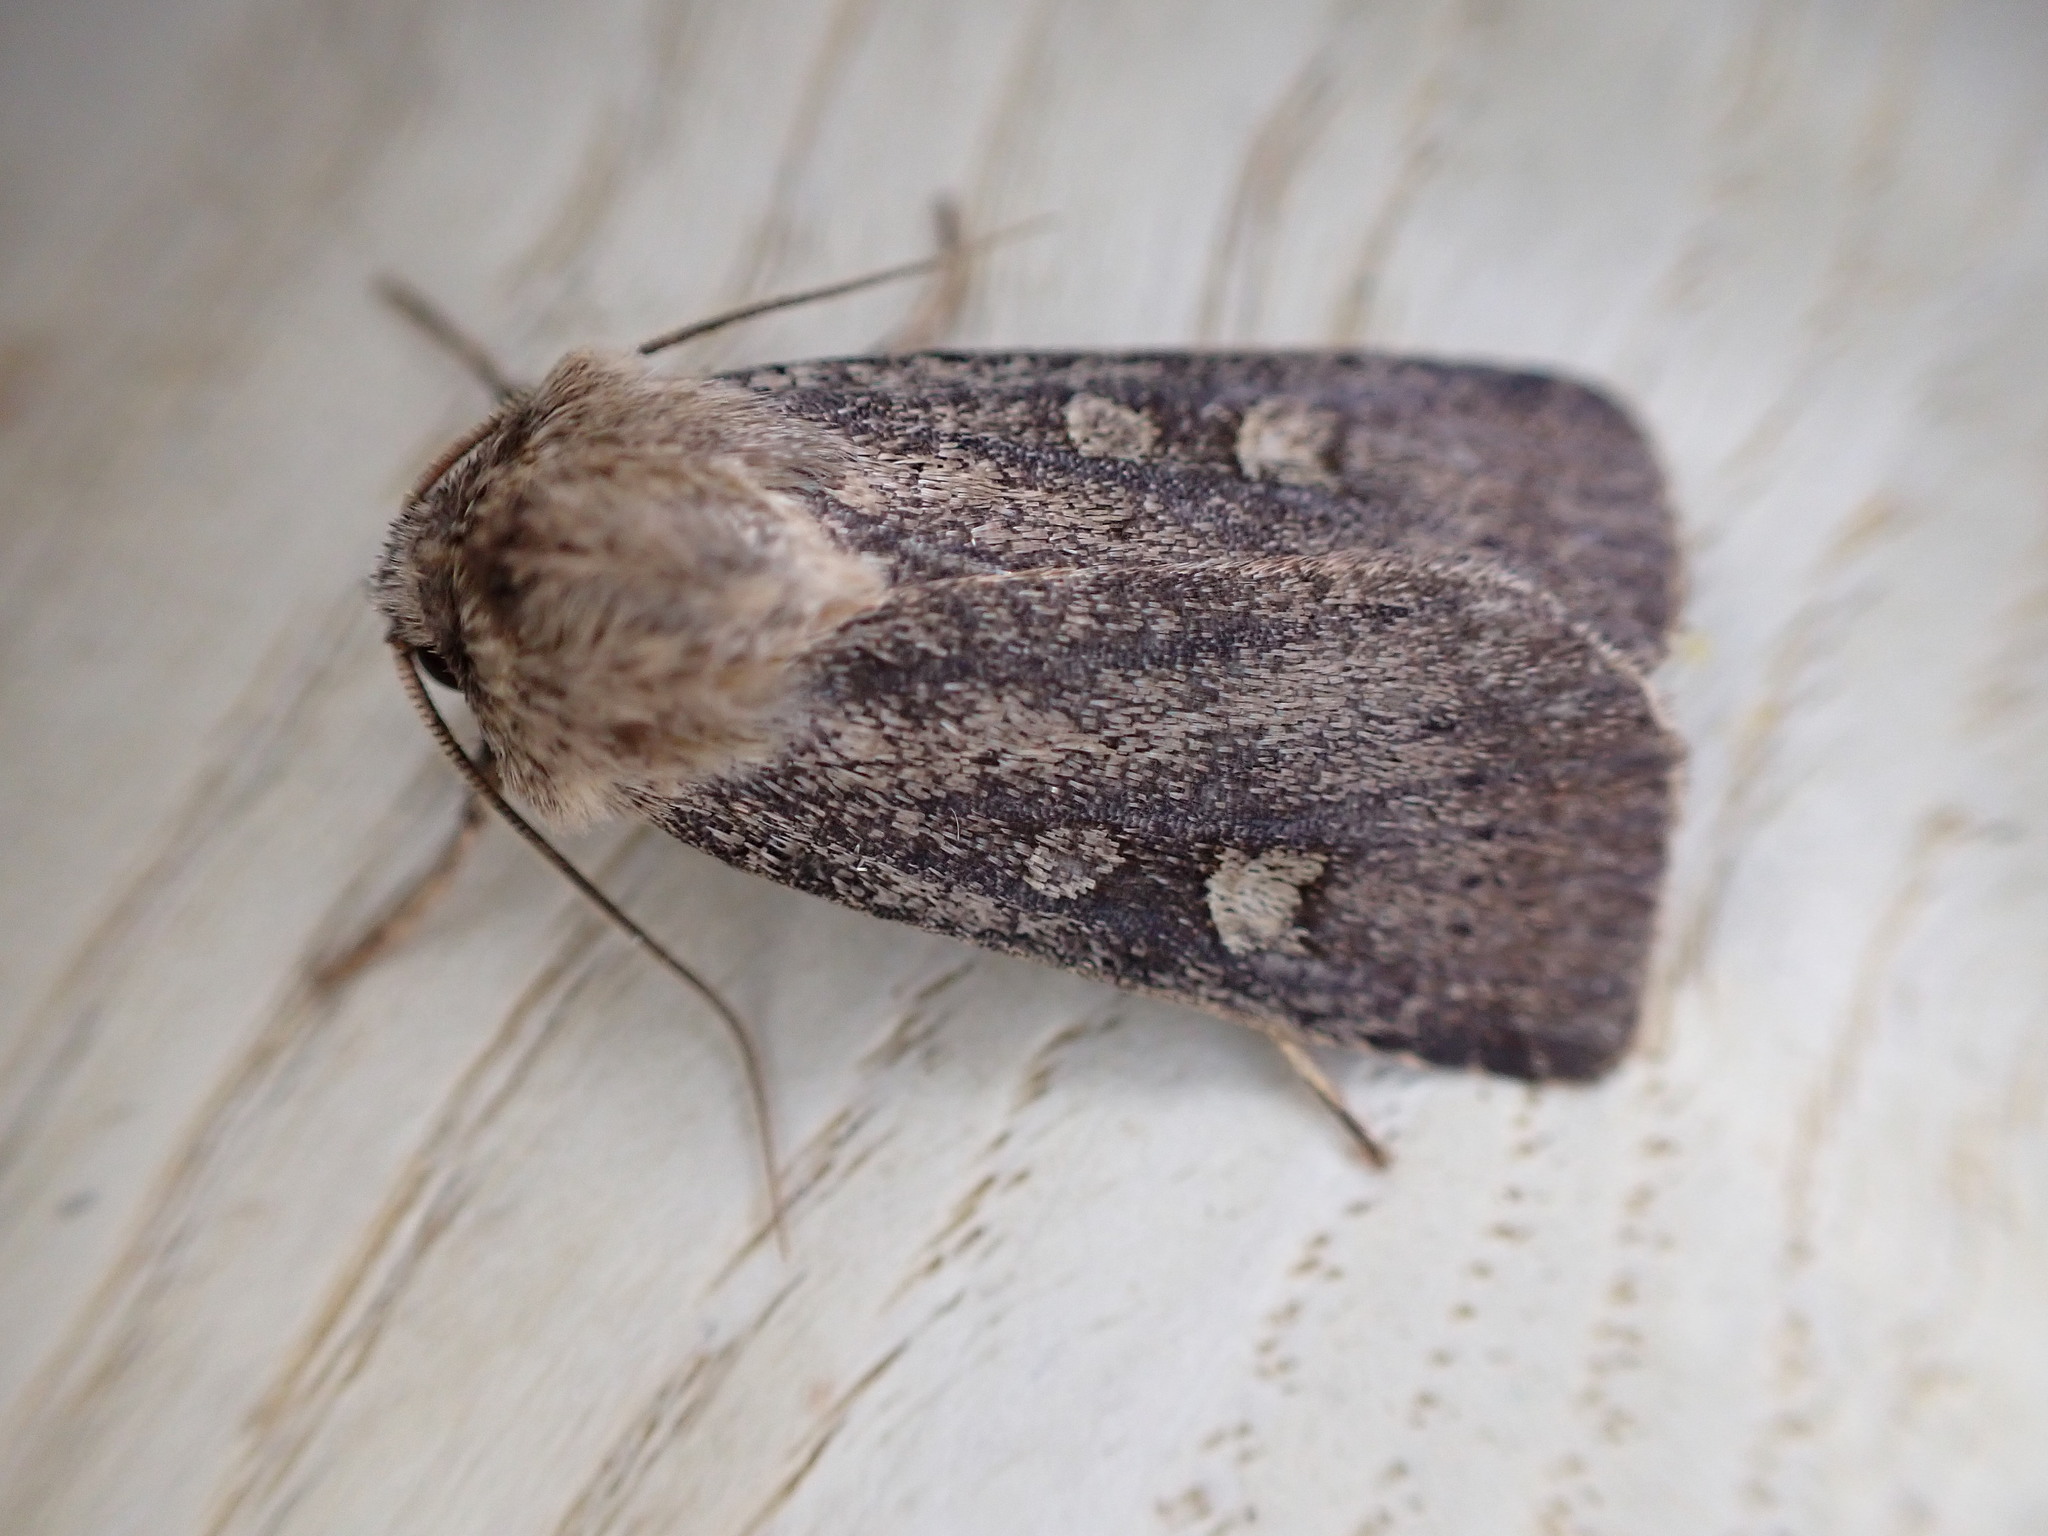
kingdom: Animalia
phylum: Arthropoda
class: Insecta
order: Lepidoptera
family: Noctuidae
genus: Xestia
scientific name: Xestia xanthographa
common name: Square-spot rustic
